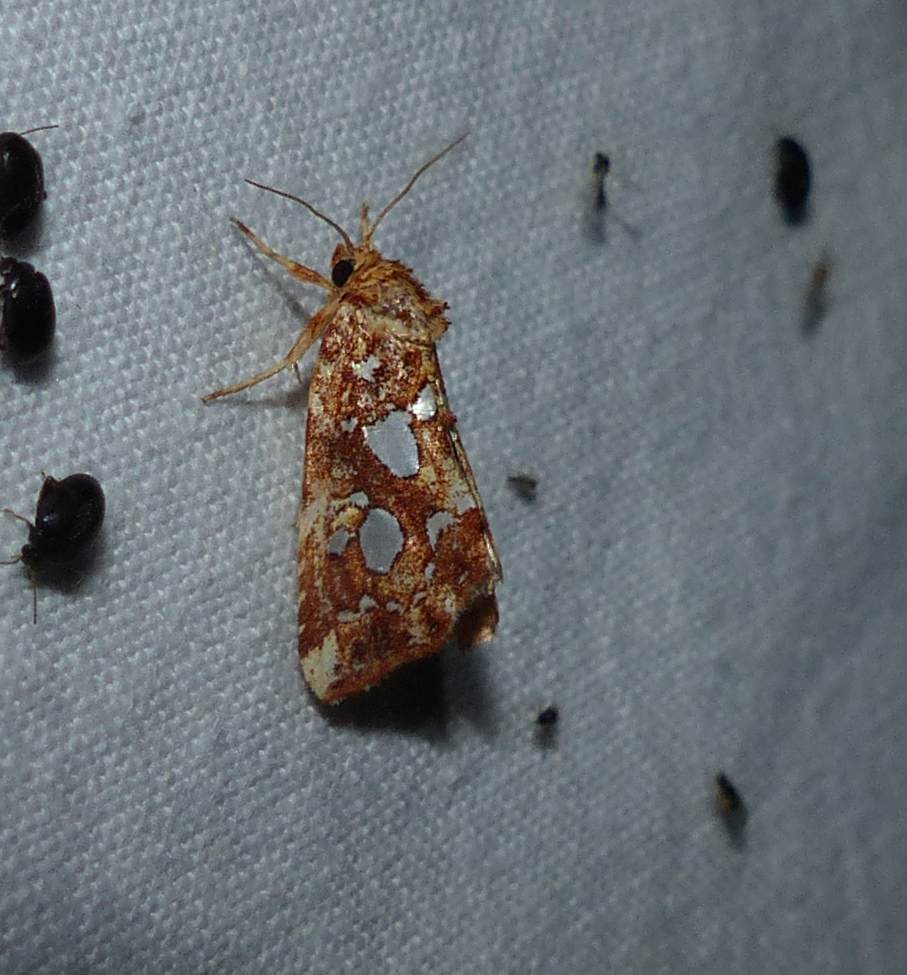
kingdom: Animalia
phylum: Arthropoda
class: Insecta
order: Lepidoptera
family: Noctuidae
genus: Callopistria
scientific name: Callopistria cordata
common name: Silver-spotted fern moth
